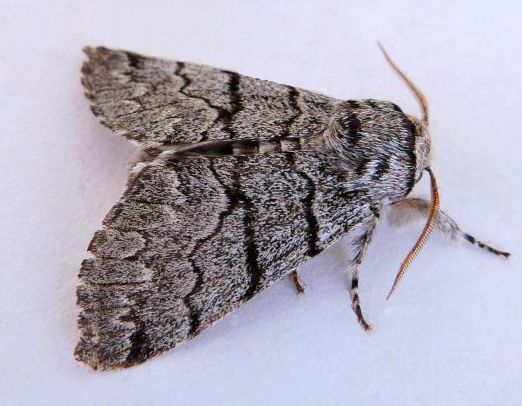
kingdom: Animalia
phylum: Arthropoda
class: Insecta
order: Lepidoptera
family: Noctuidae
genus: Panthea
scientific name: Panthea greyi
